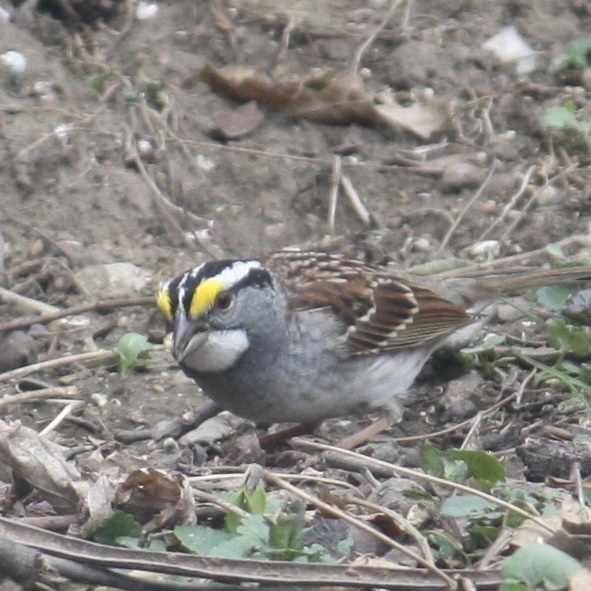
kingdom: Animalia
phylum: Chordata
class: Aves
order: Passeriformes
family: Passerellidae
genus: Zonotrichia
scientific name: Zonotrichia albicollis
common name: White-throated sparrow
